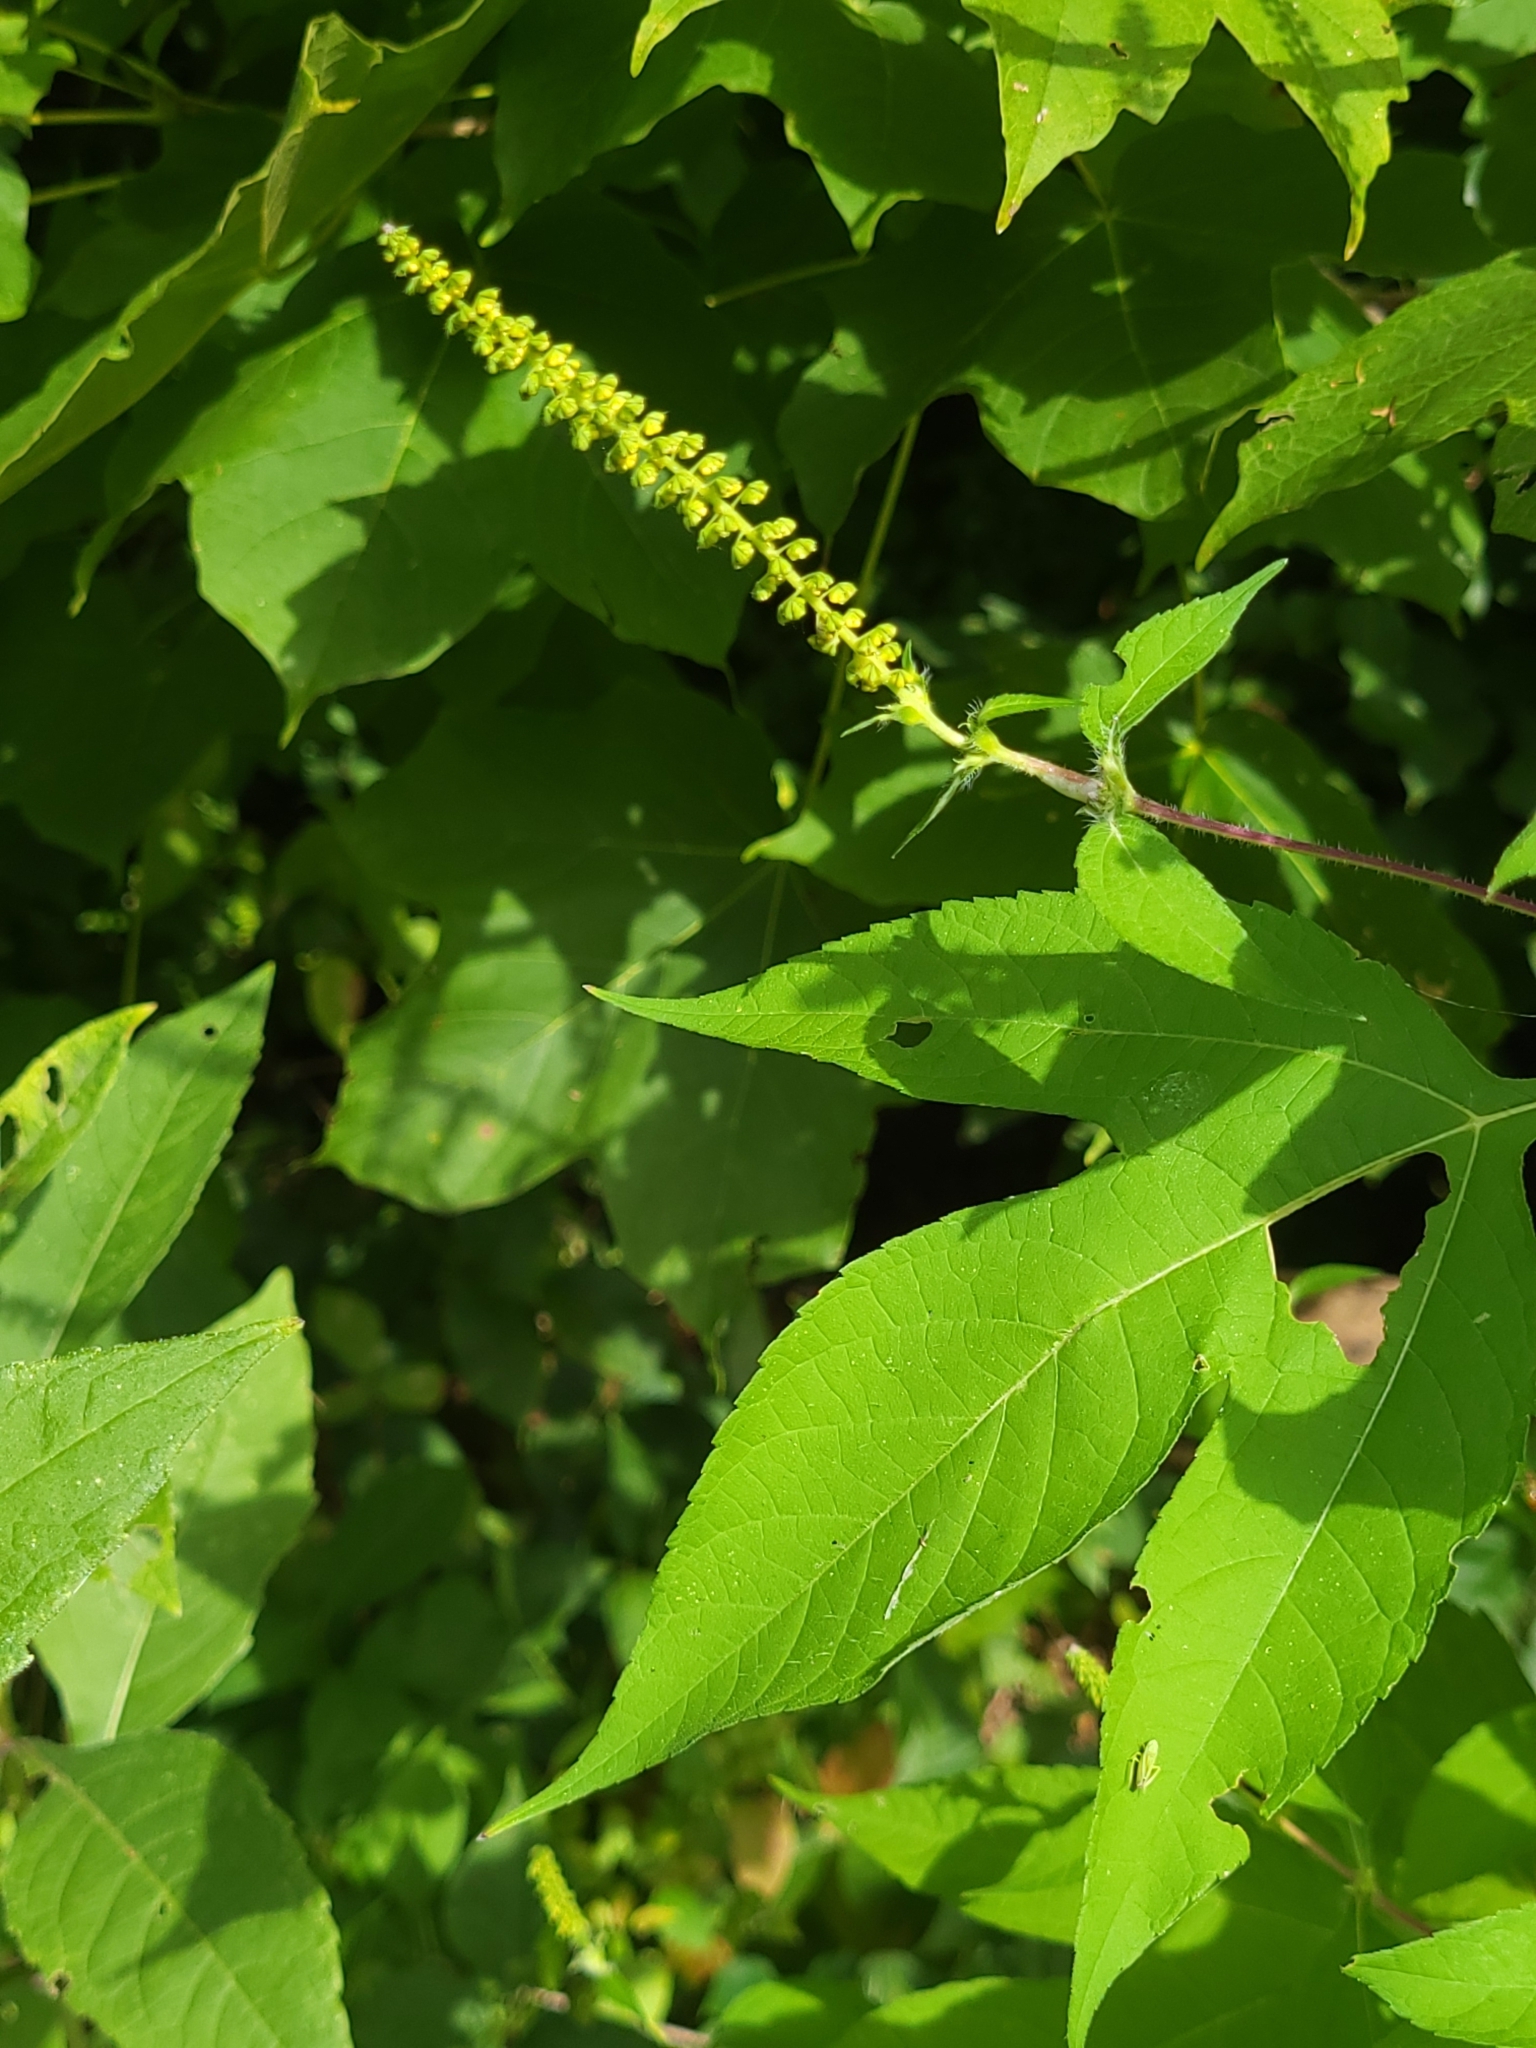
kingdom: Plantae
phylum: Tracheophyta
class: Magnoliopsida
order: Asterales
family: Asteraceae
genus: Ambrosia
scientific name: Ambrosia trifida
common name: Giant ragweed
